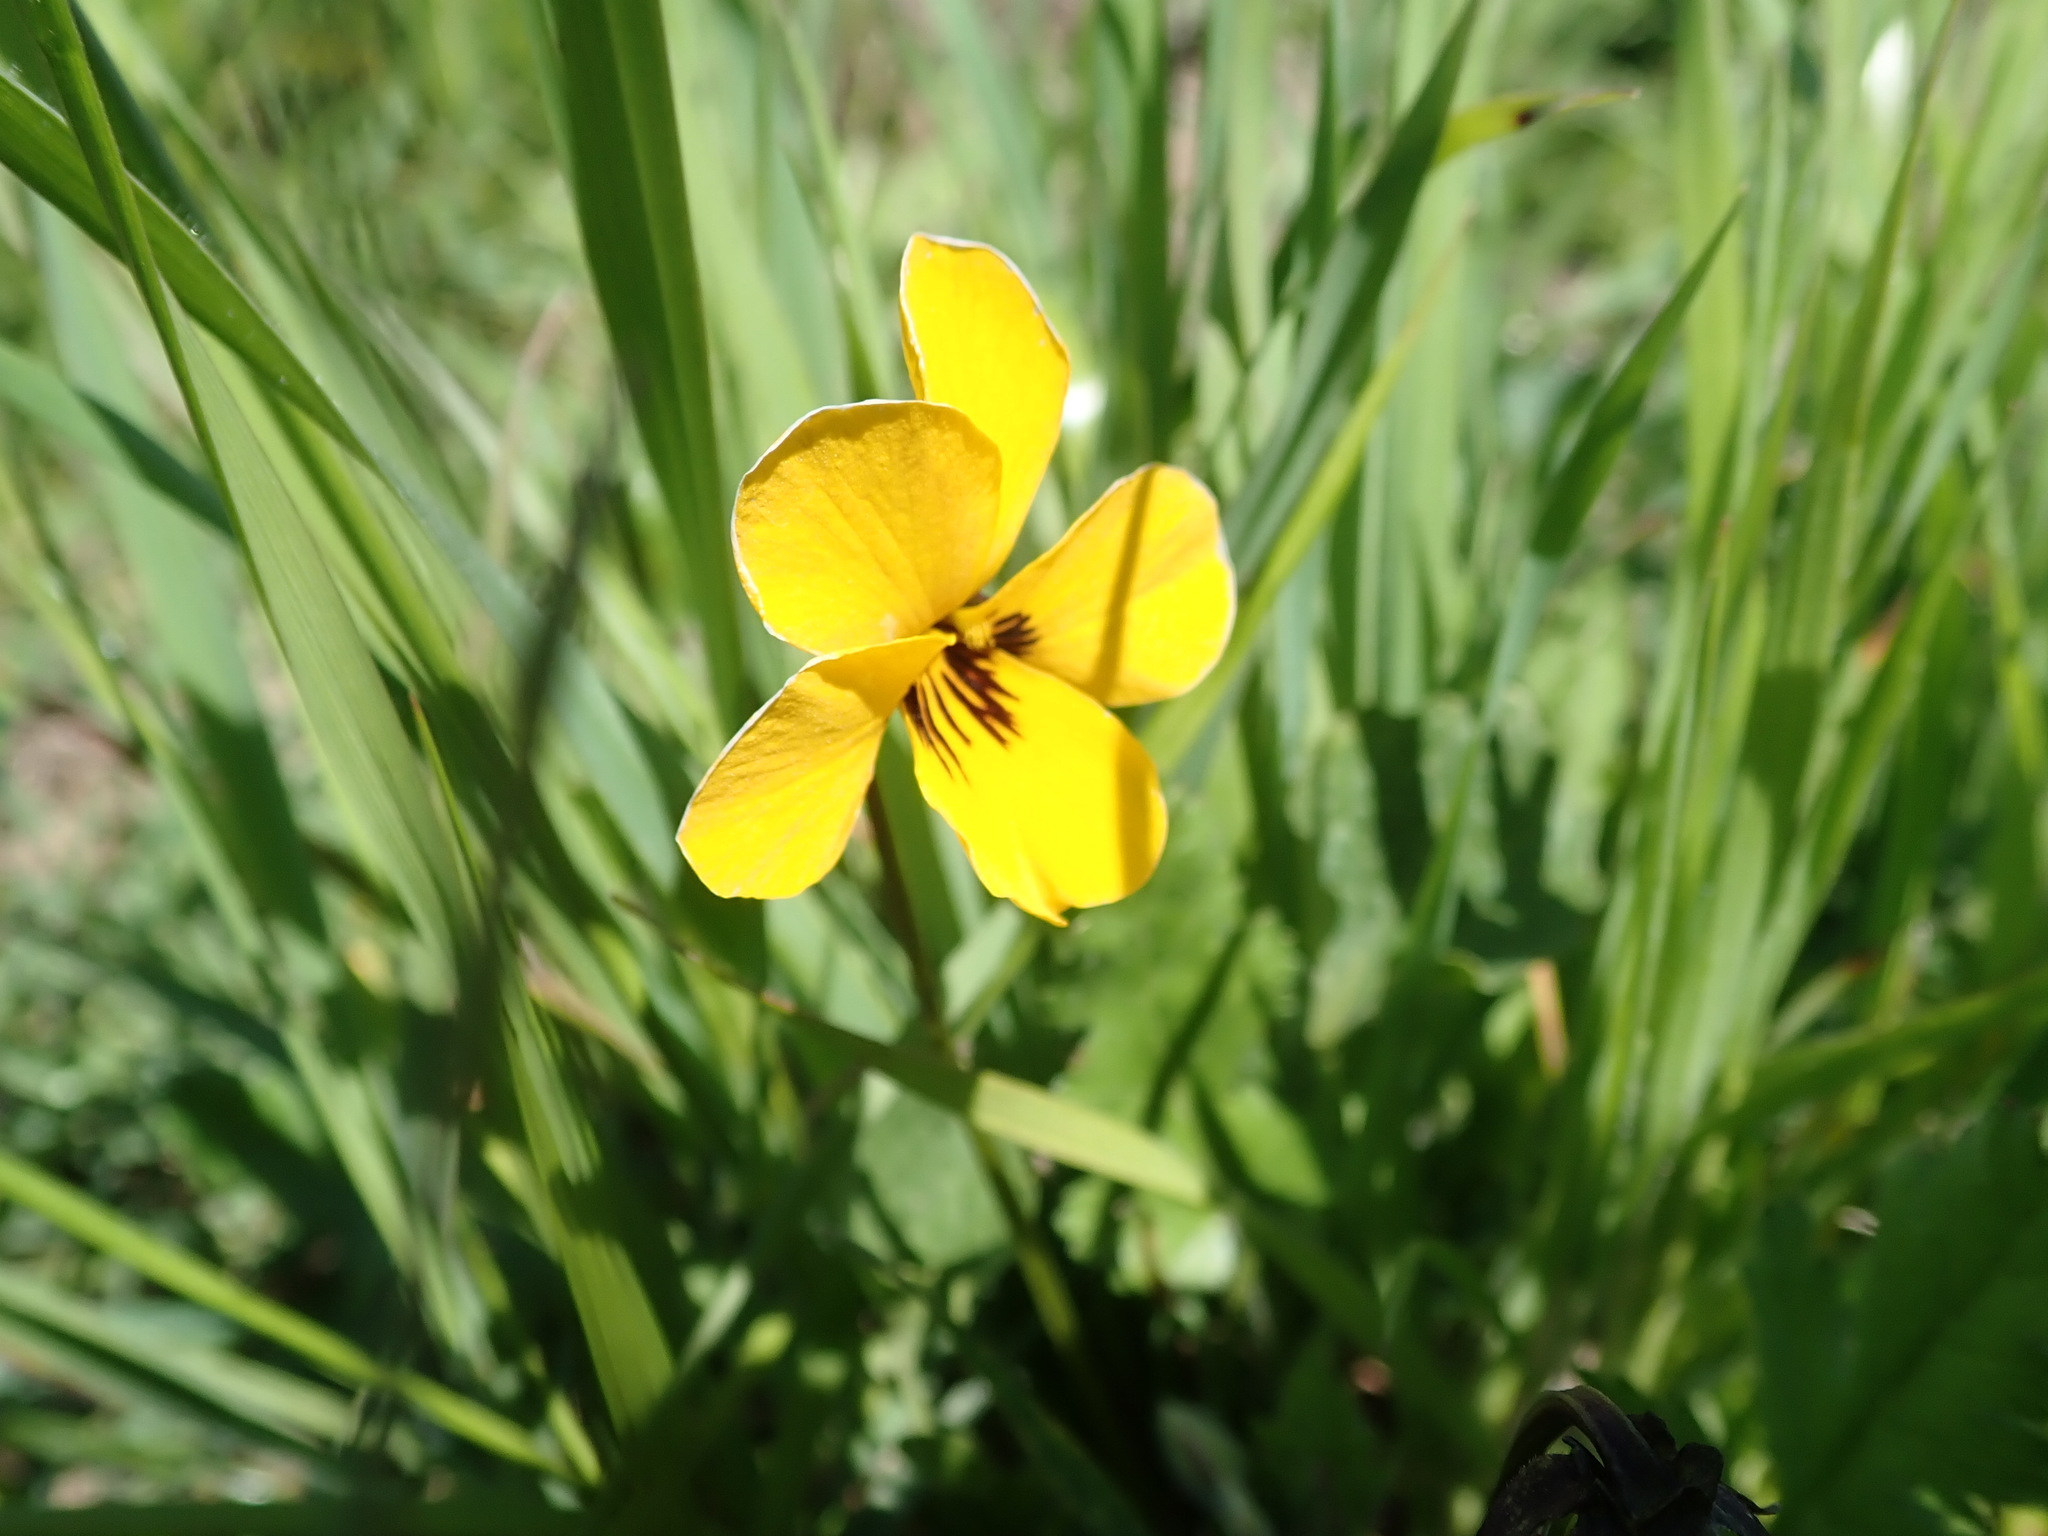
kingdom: Plantae
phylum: Tracheophyta
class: Magnoliopsida
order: Malpighiales
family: Violaceae
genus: Viola
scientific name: Viola pedunculata
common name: California golden violet
